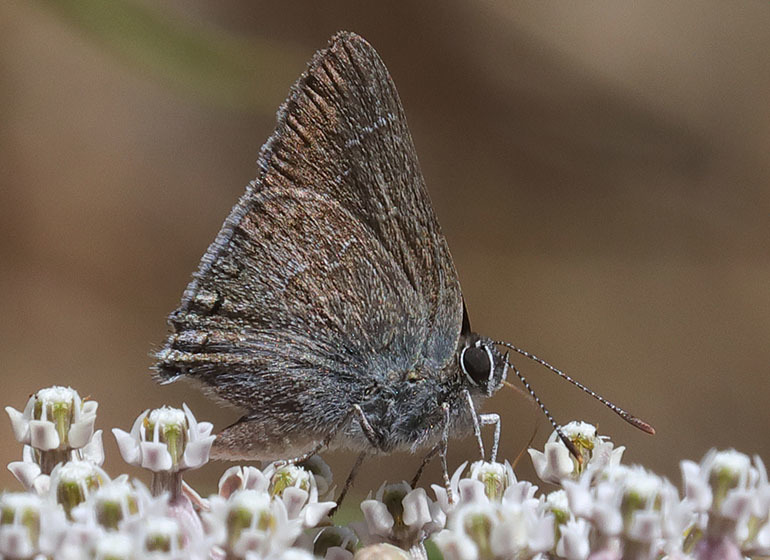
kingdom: Animalia
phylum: Arthropoda
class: Insecta
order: Lepidoptera
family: Lycaenidae
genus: Thecla
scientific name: Thecla tetra
